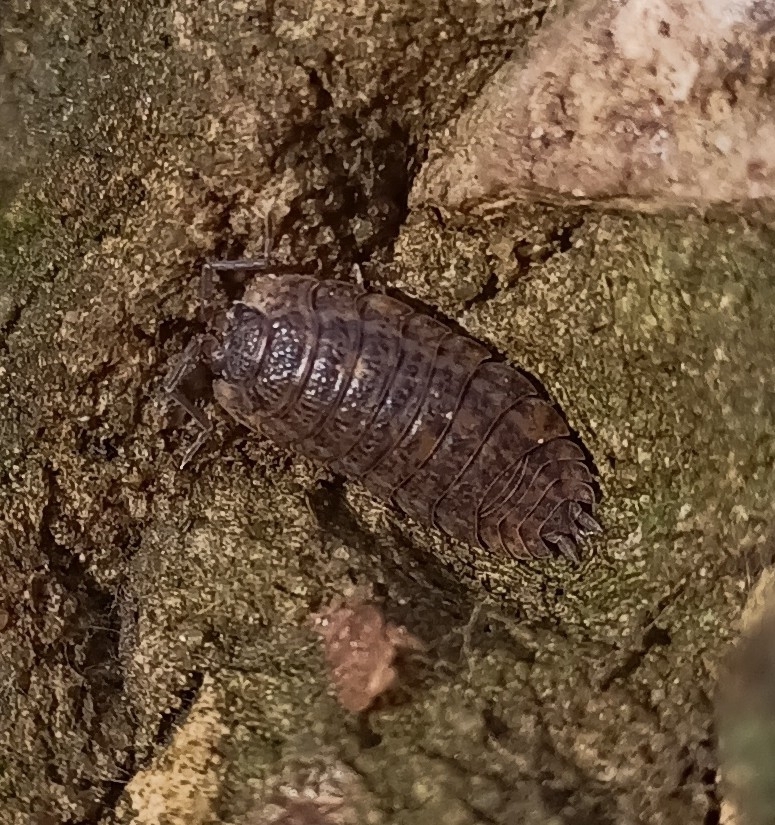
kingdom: Animalia
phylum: Arthropoda
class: Malacostraca
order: Isopoda
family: Trachelipodidae
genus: Trachelipus
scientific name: Trachelipus rathkii
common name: Isopod
